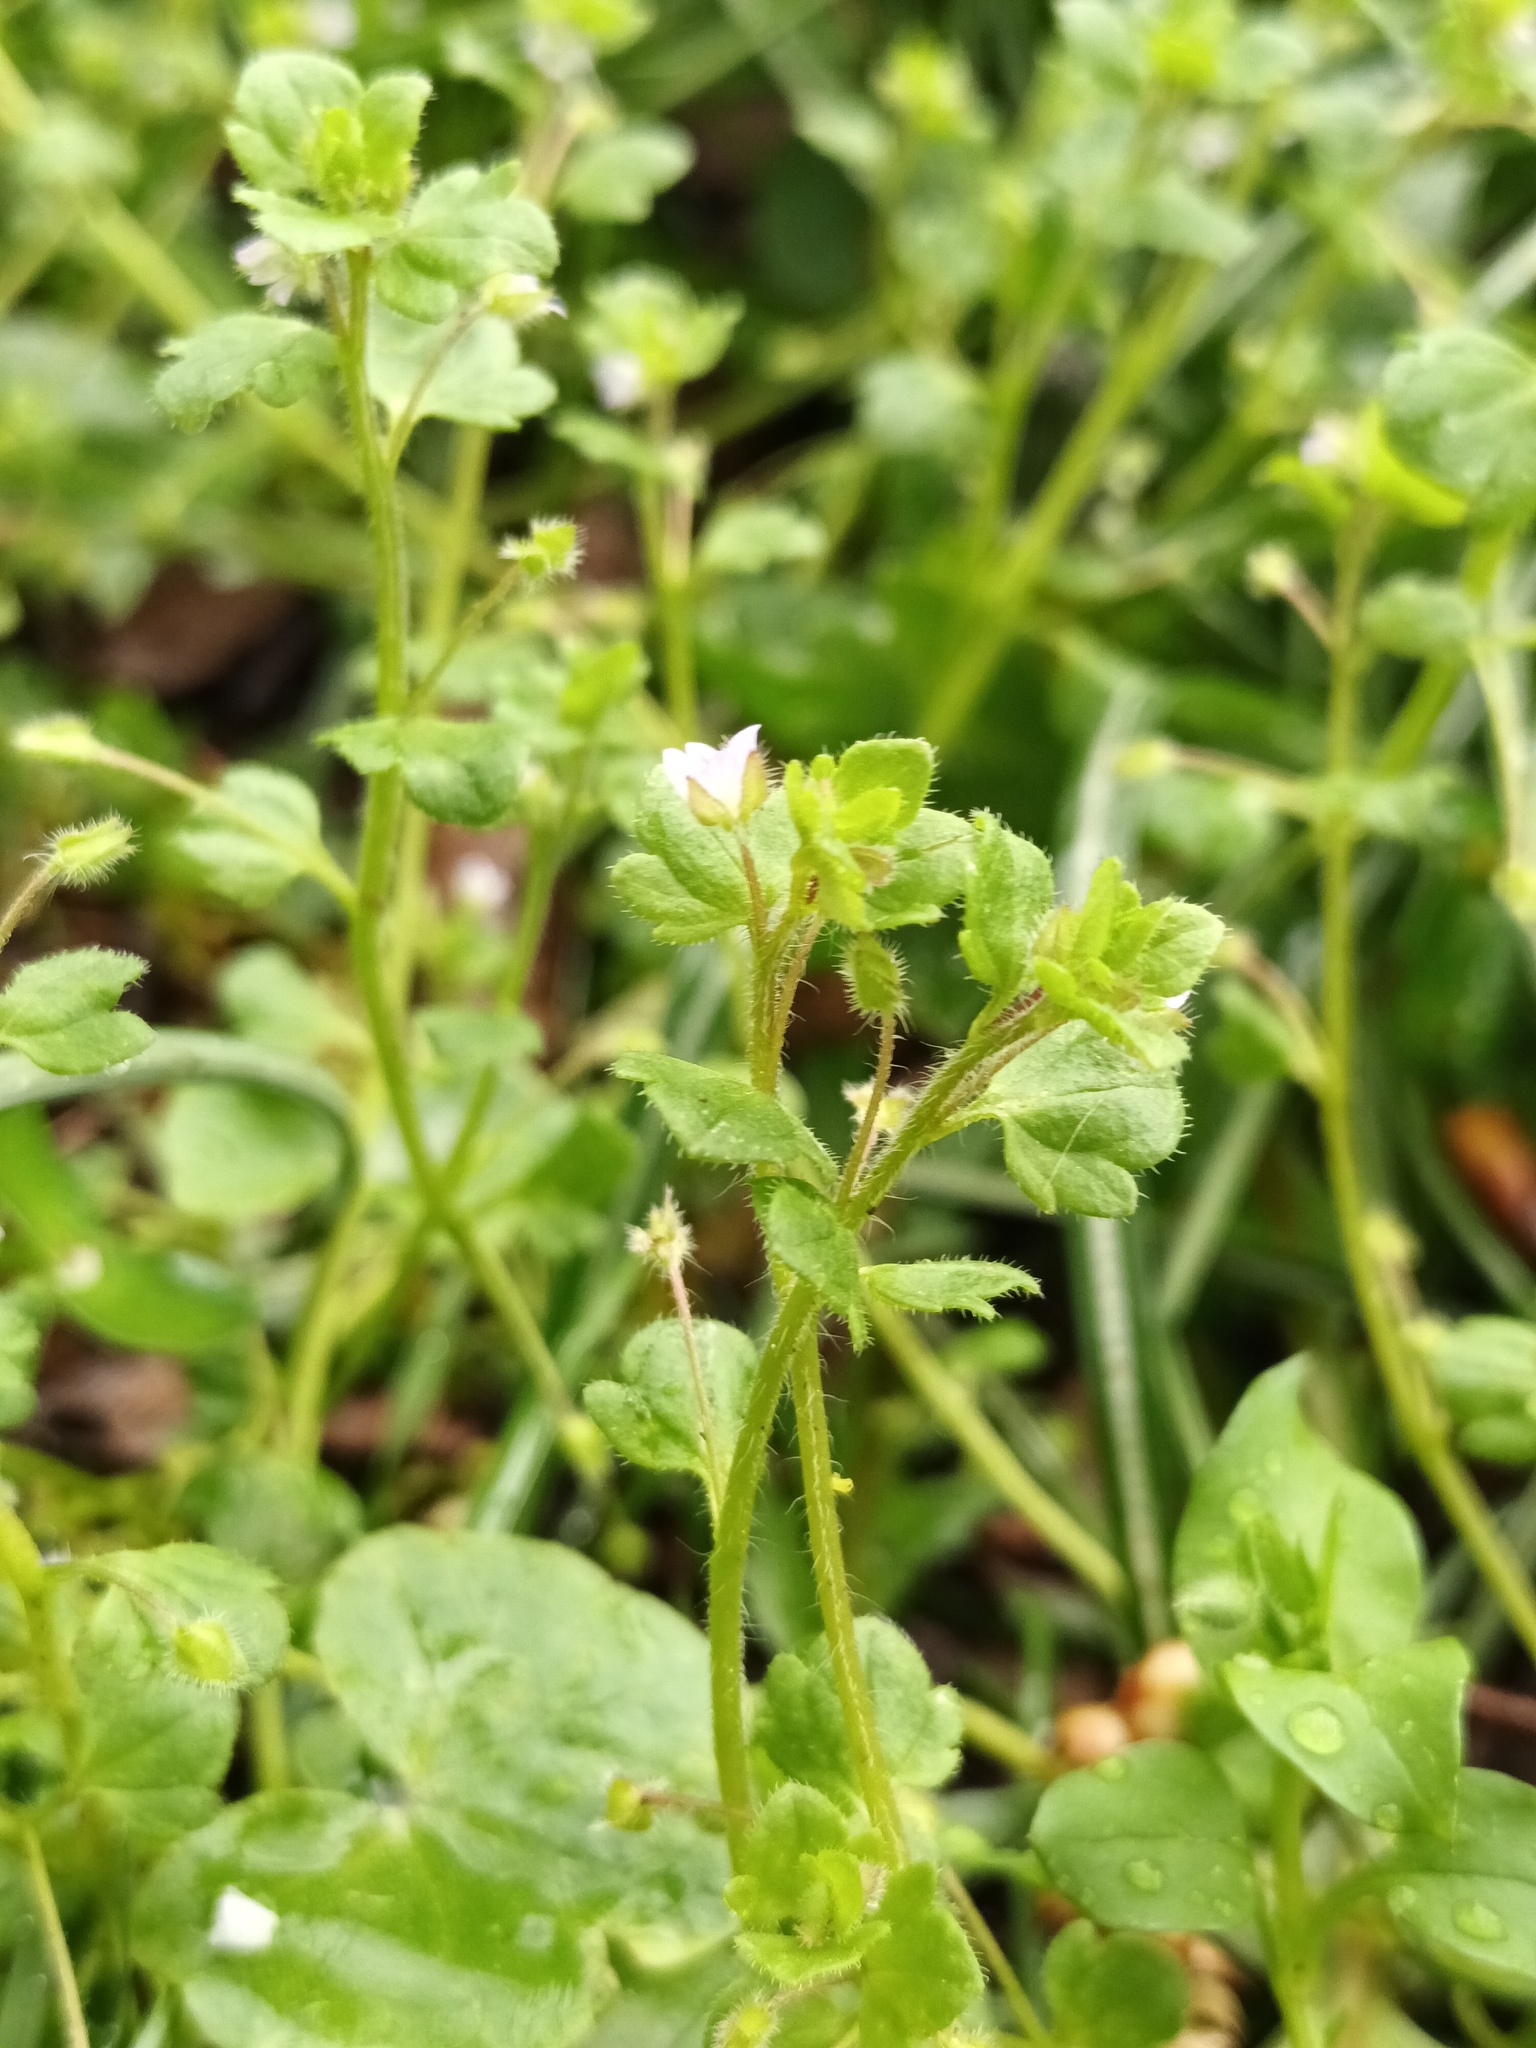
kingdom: Plantae
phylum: Tracheophyta
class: Magnoliopsida
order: Lamiales
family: Plantaginaceae
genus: Veronica
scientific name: Veronica sublobata
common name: False ivy-leaved speedwell
